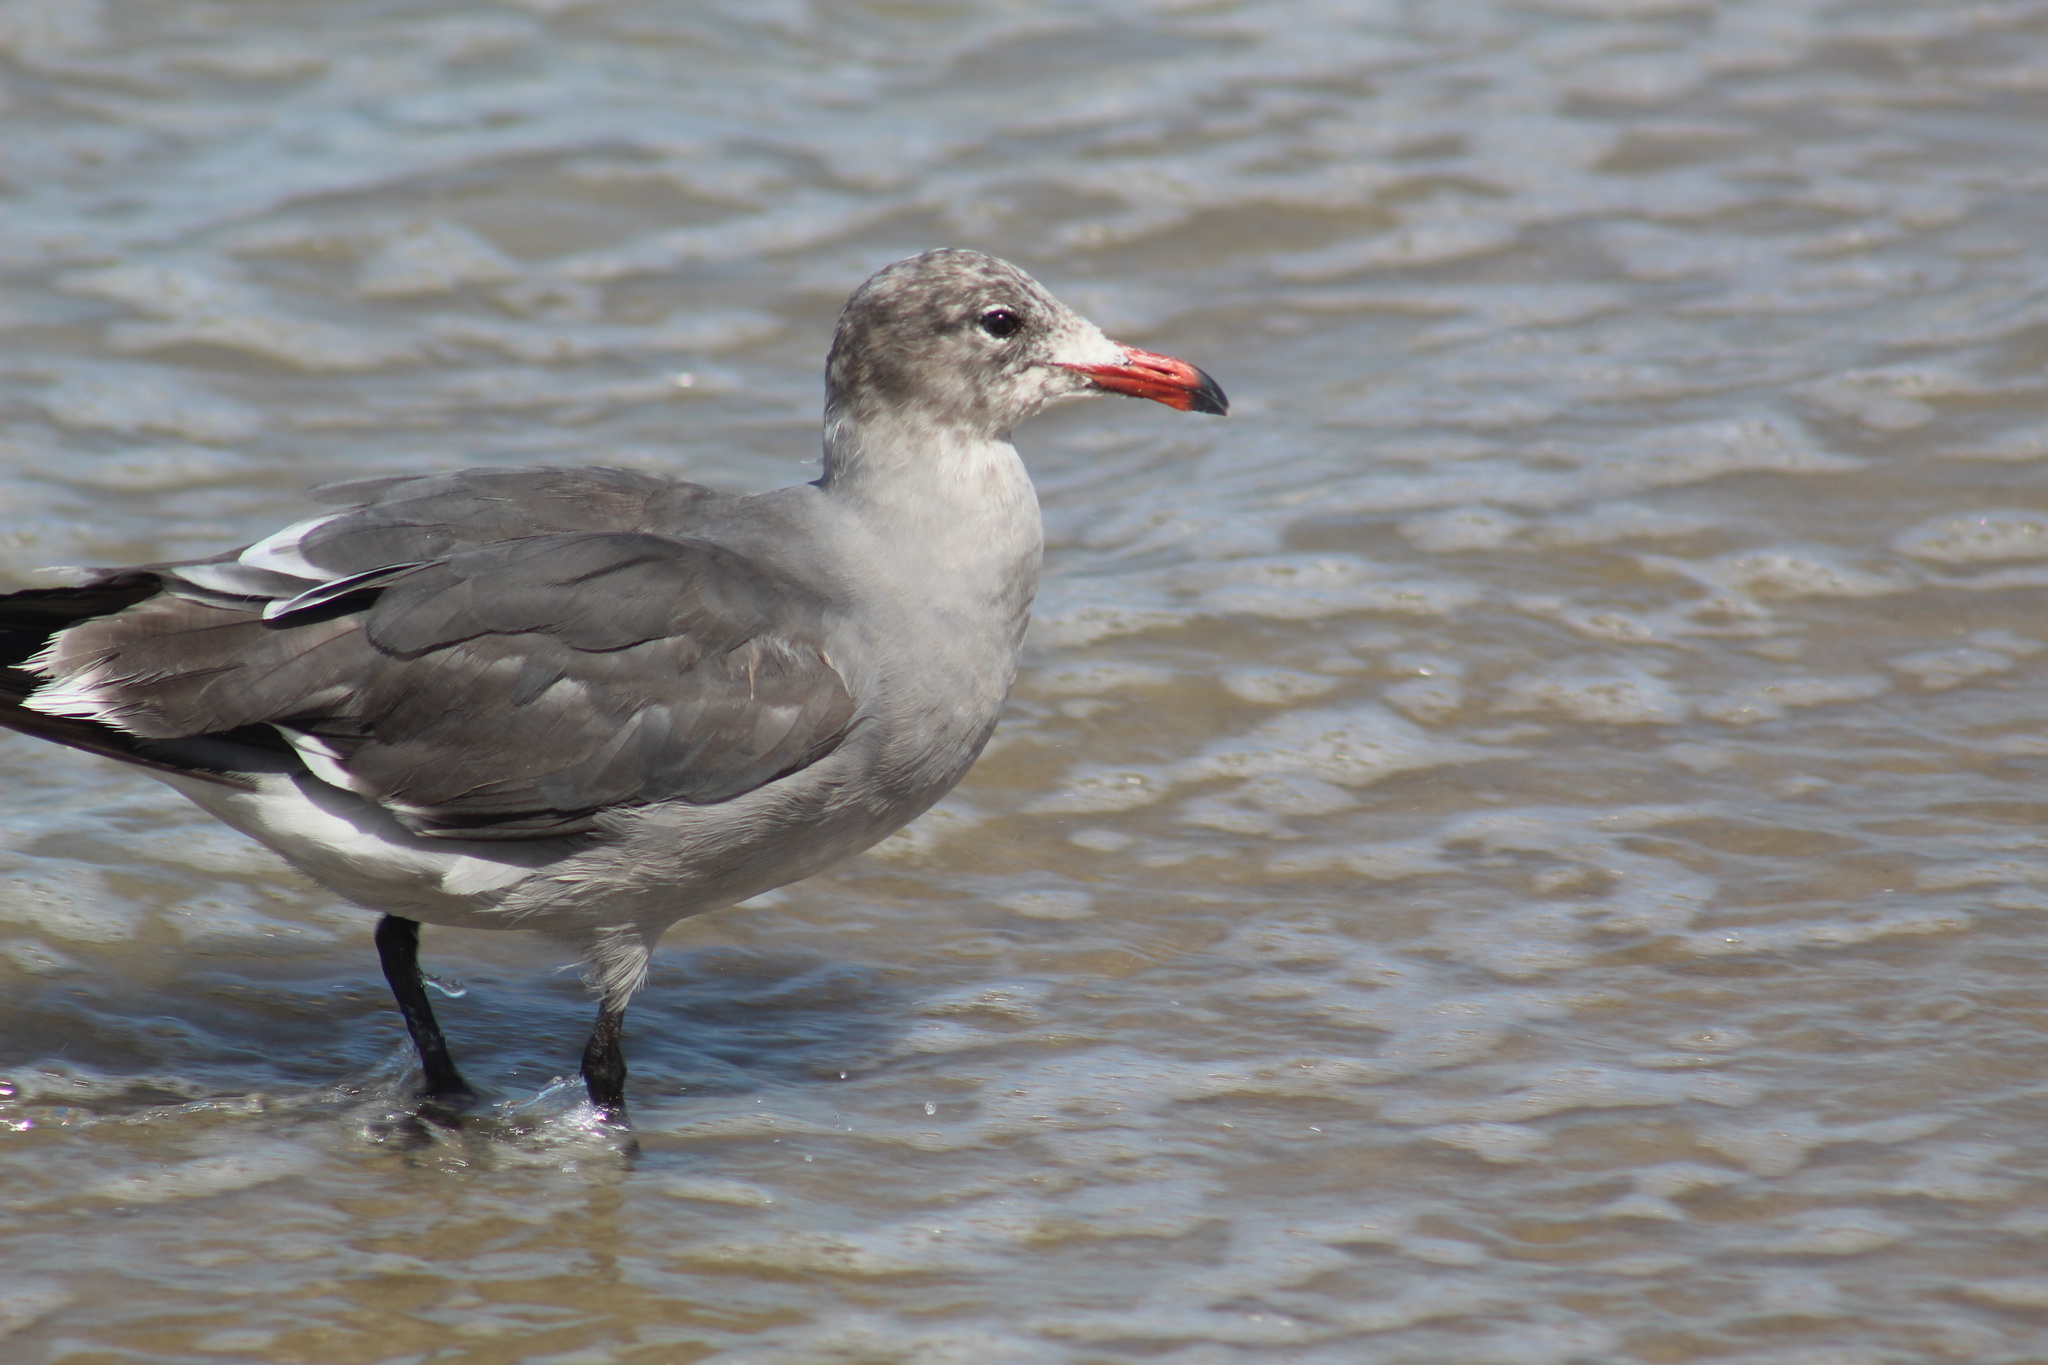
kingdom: Animalia
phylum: Chordata
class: Aves
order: Charadriiformes
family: Laridae
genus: Larus
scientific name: Larus heermanni
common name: Heermann's gull
